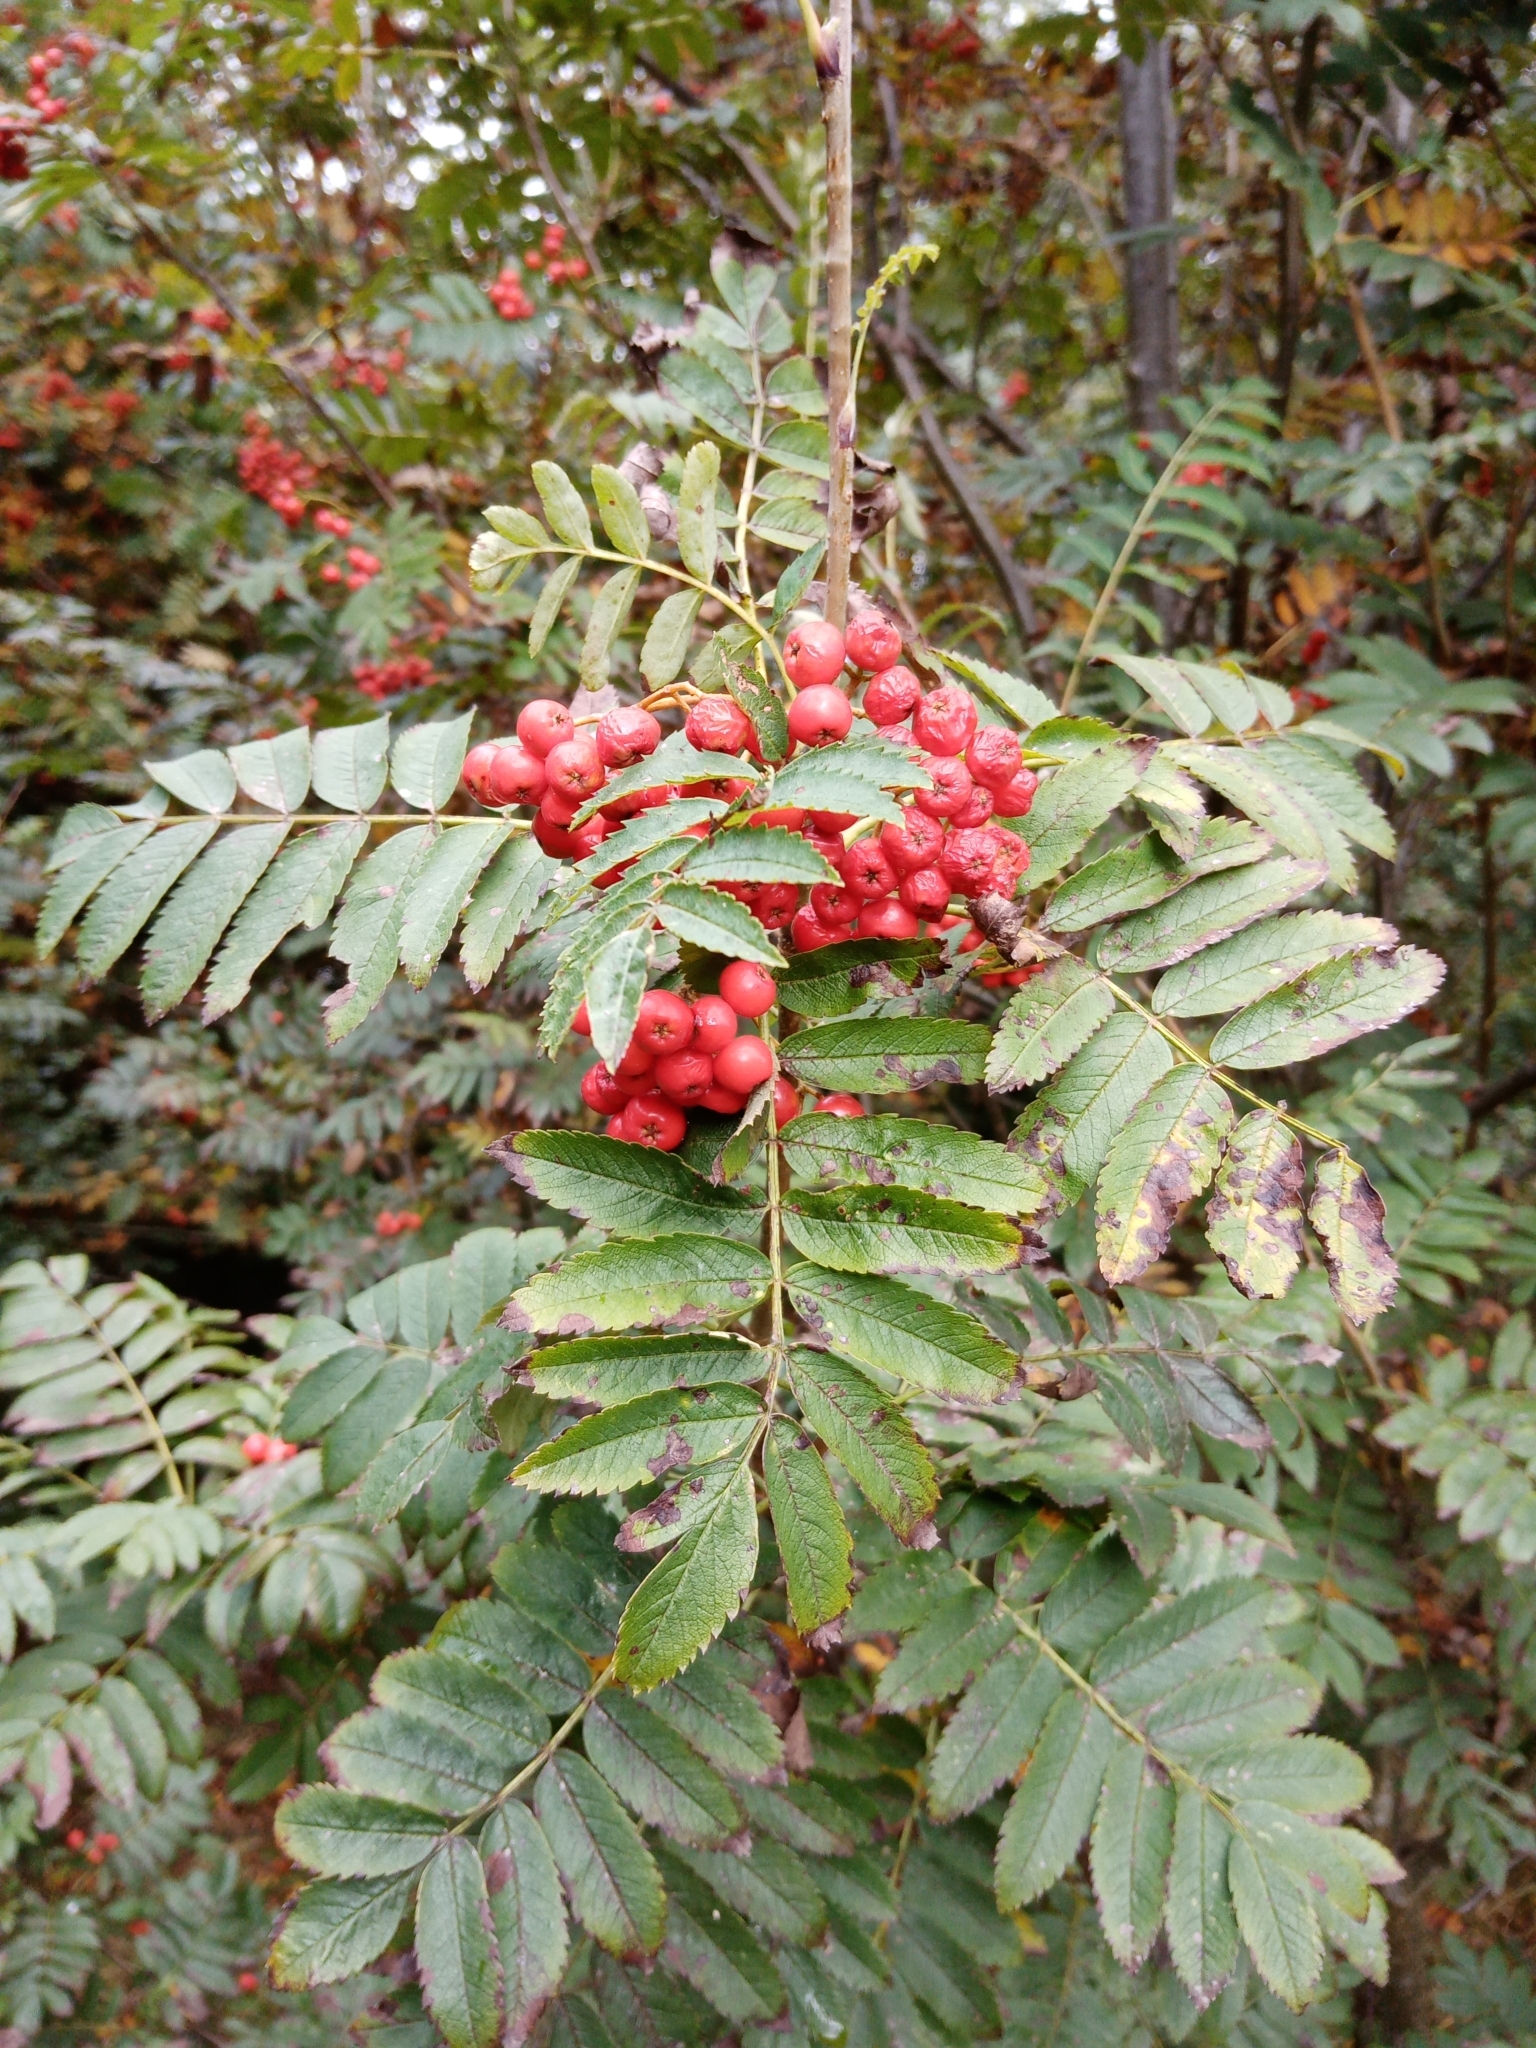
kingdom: Plantae
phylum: Tracheophyta
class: Magnoliopsida
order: Rosales
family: Rosaceae
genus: Sorbus
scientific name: Sorbus aucuparia
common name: Rowan
